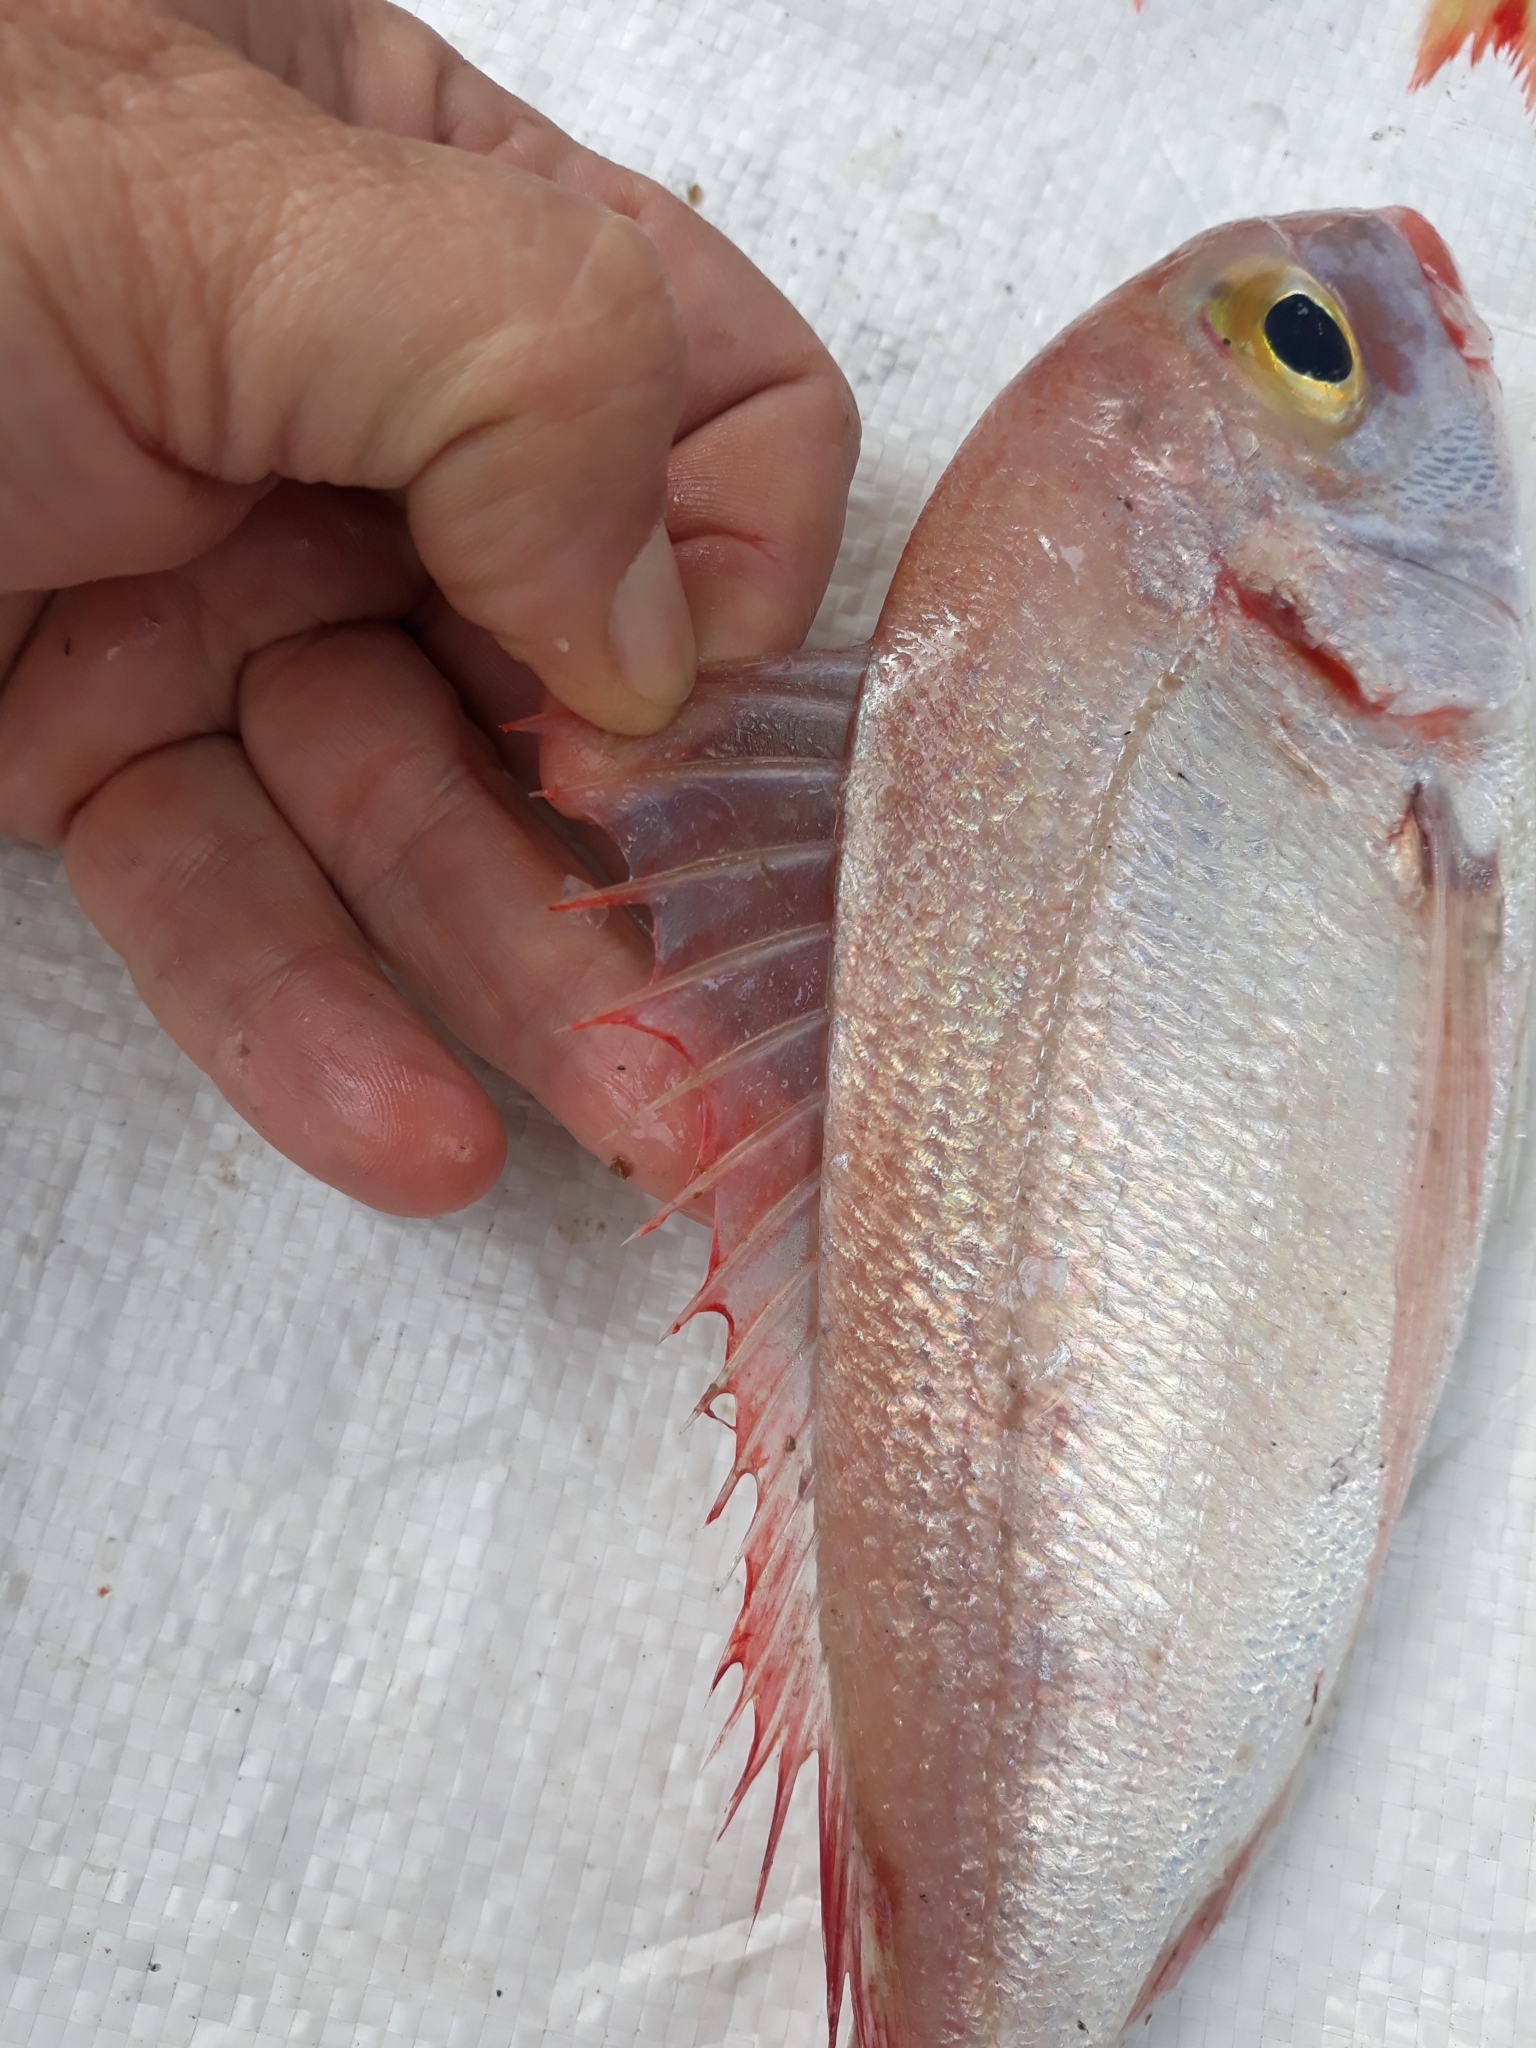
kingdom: Animalia
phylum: Chordata
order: Perciformes
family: Sparidae
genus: Pagellus
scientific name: Pagellus bellottii
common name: Red pandora
